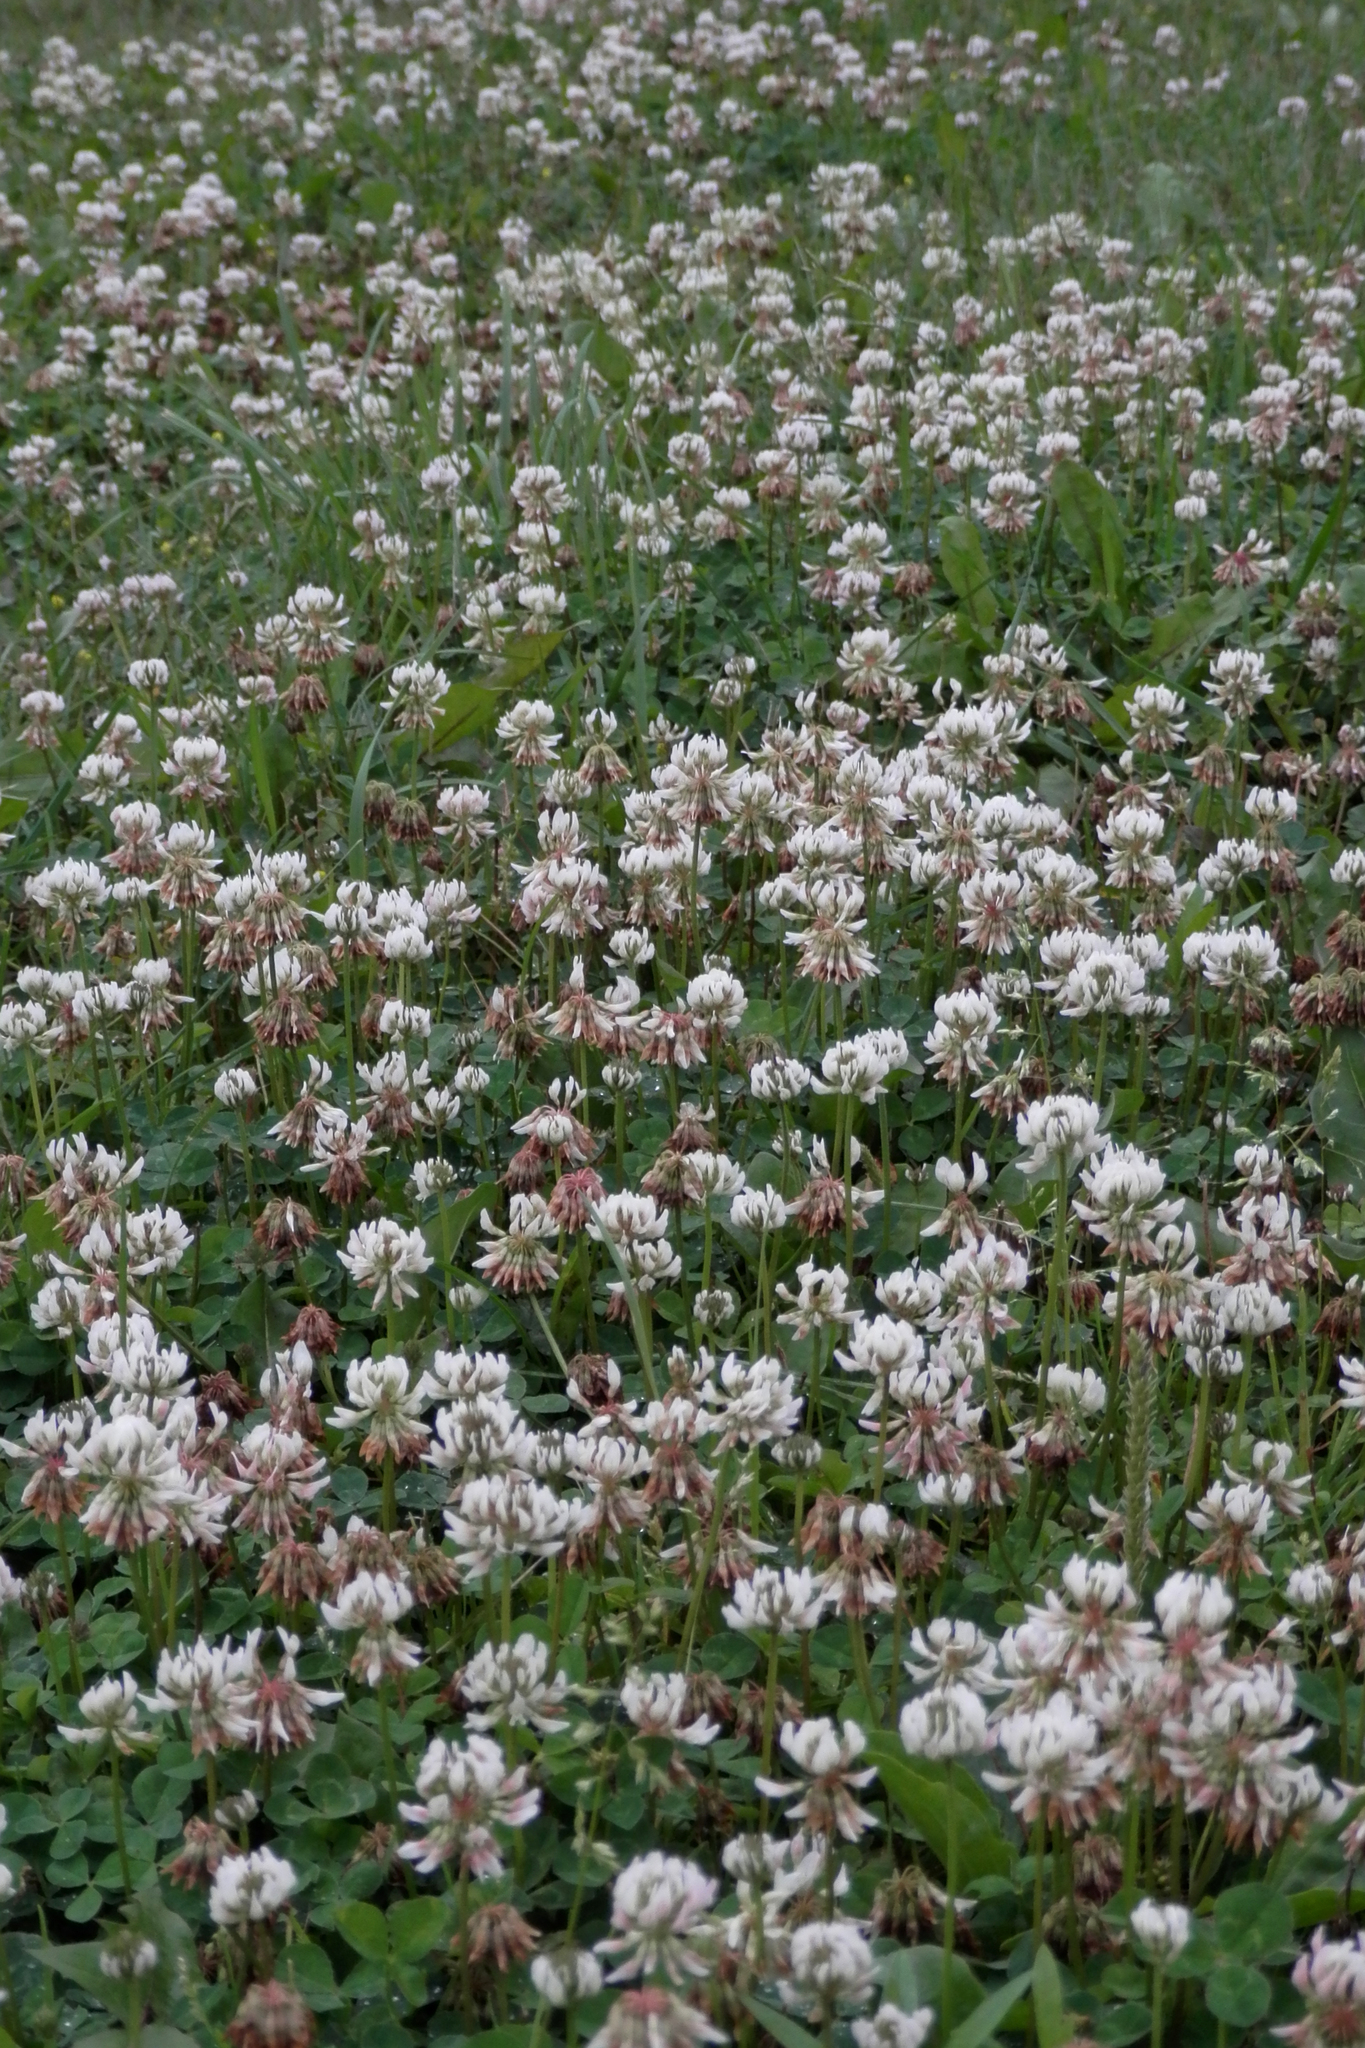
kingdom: Plantae
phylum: Tracheophyta
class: Magnoliopsida
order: Fabales
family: Fabaceae
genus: Trifolium
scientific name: Trifolium repens
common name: White clover
